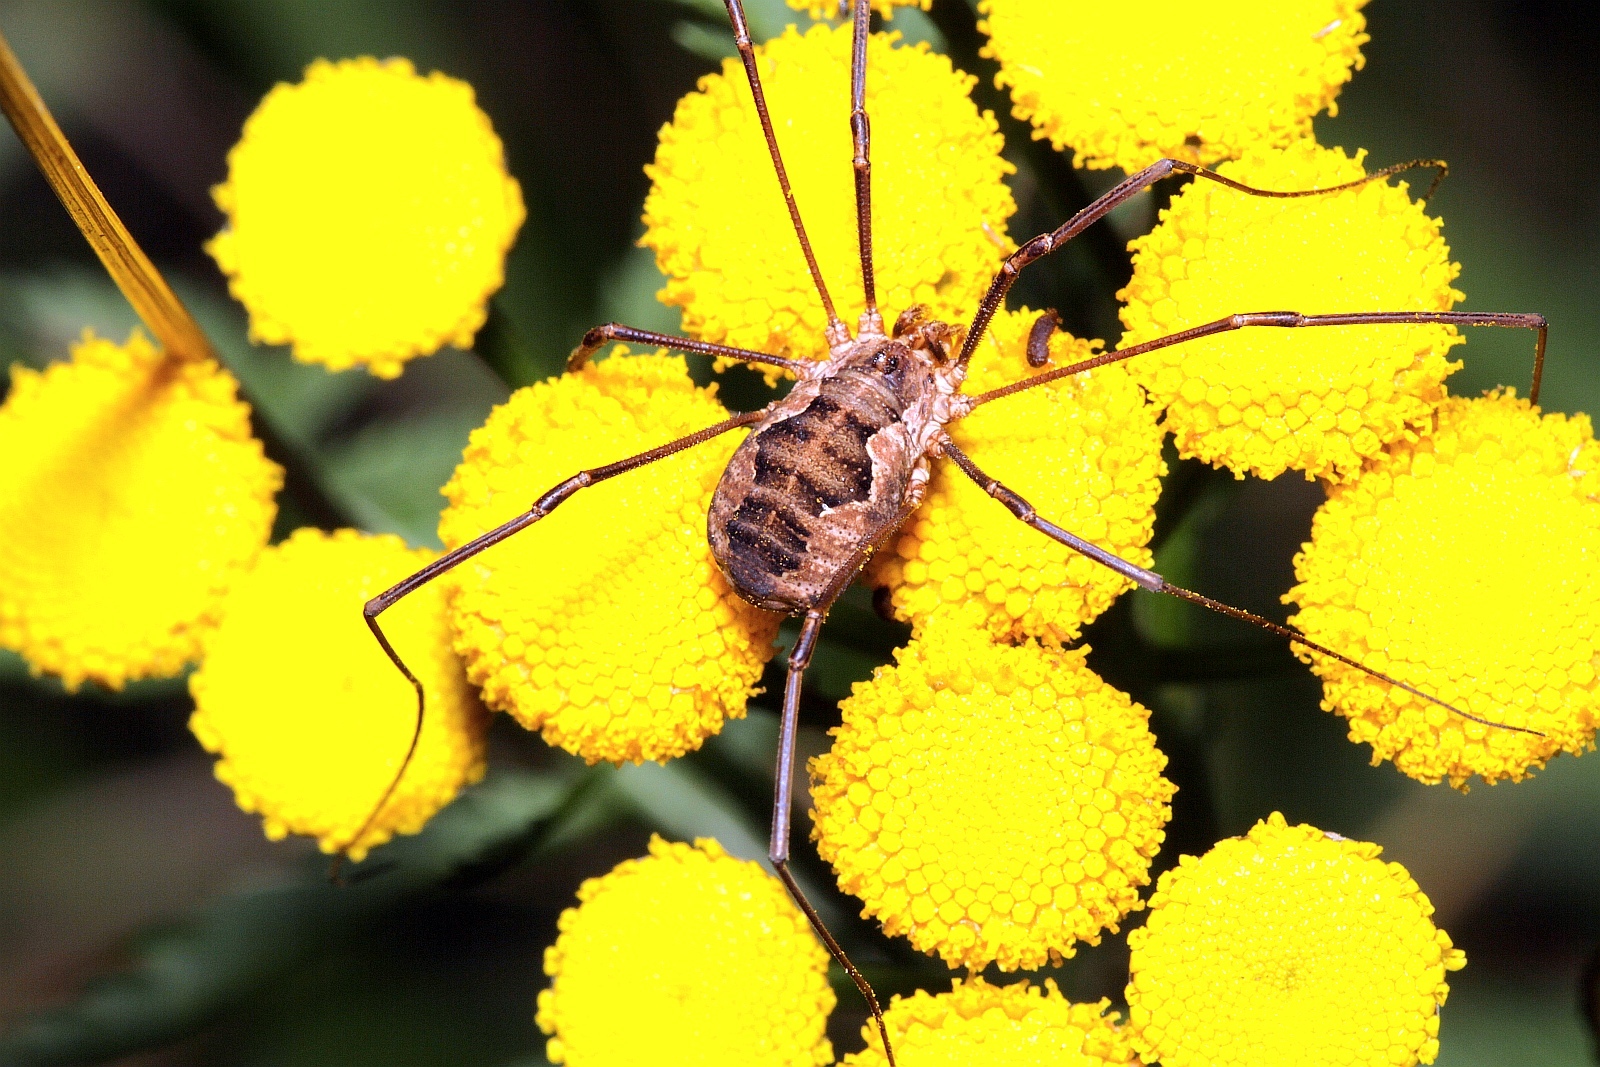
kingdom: Animalia
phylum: Arthropoda
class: Arachnida
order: Opiliones
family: Phalangiidae
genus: Phalangium
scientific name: Phalangium opilio
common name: Daddy longleg
